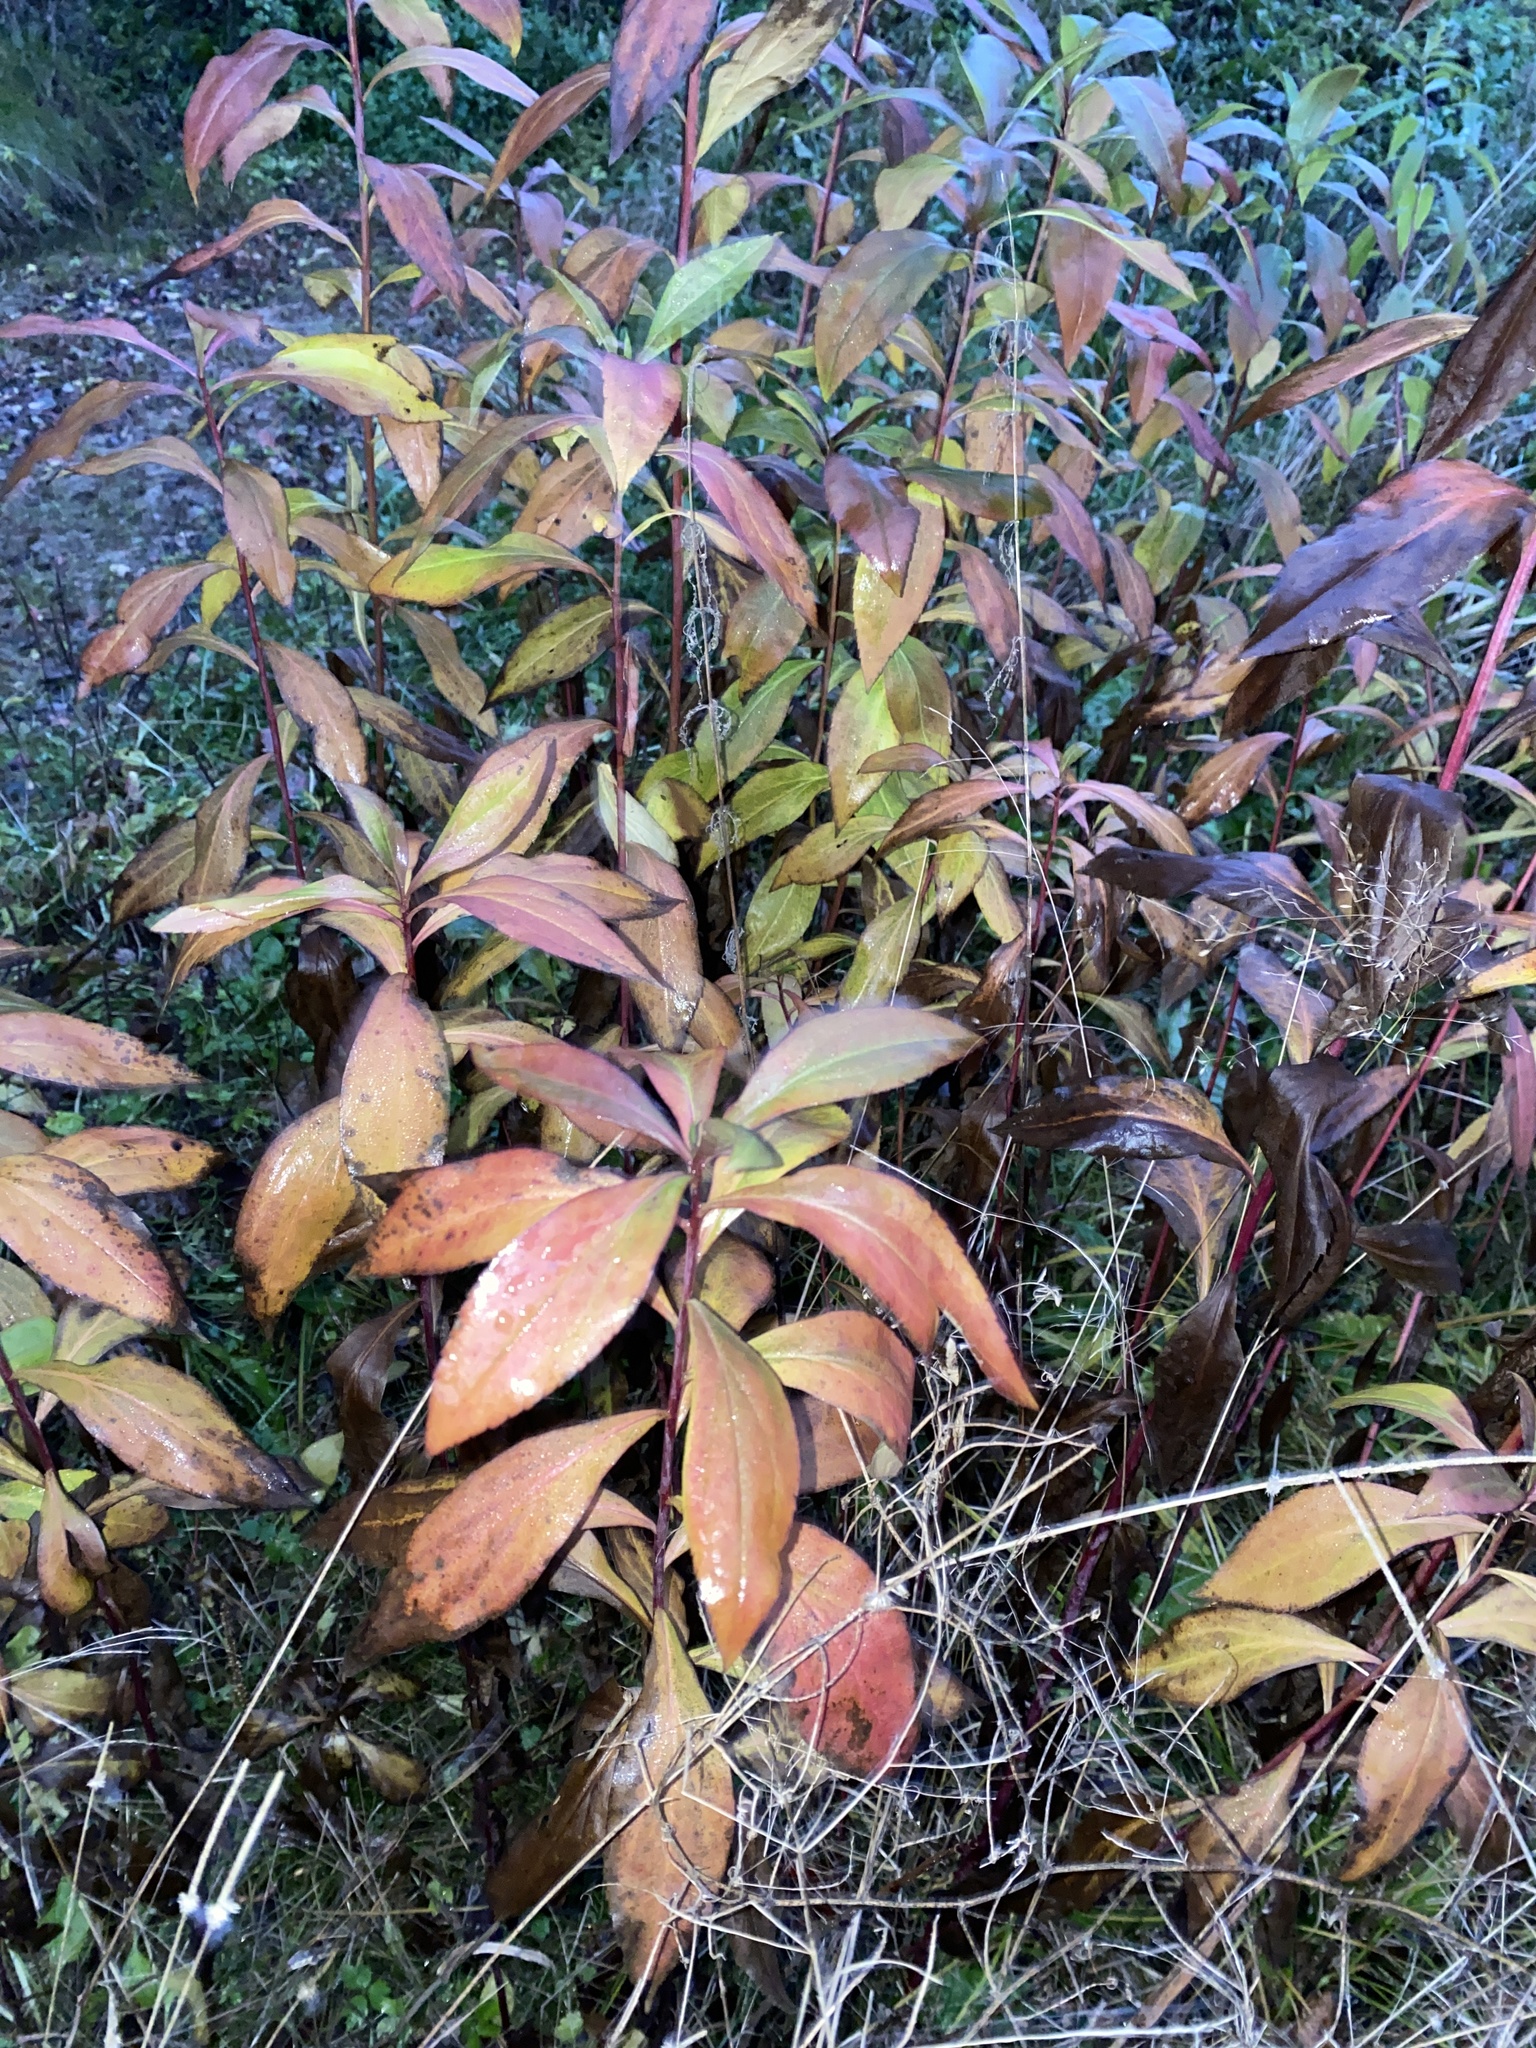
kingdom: Plantae
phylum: Tracheophyta
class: Magnoliopsida
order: Asterales
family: Asteraceae
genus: Solidago
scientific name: Solidago gigantea
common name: Giant goldenrod
